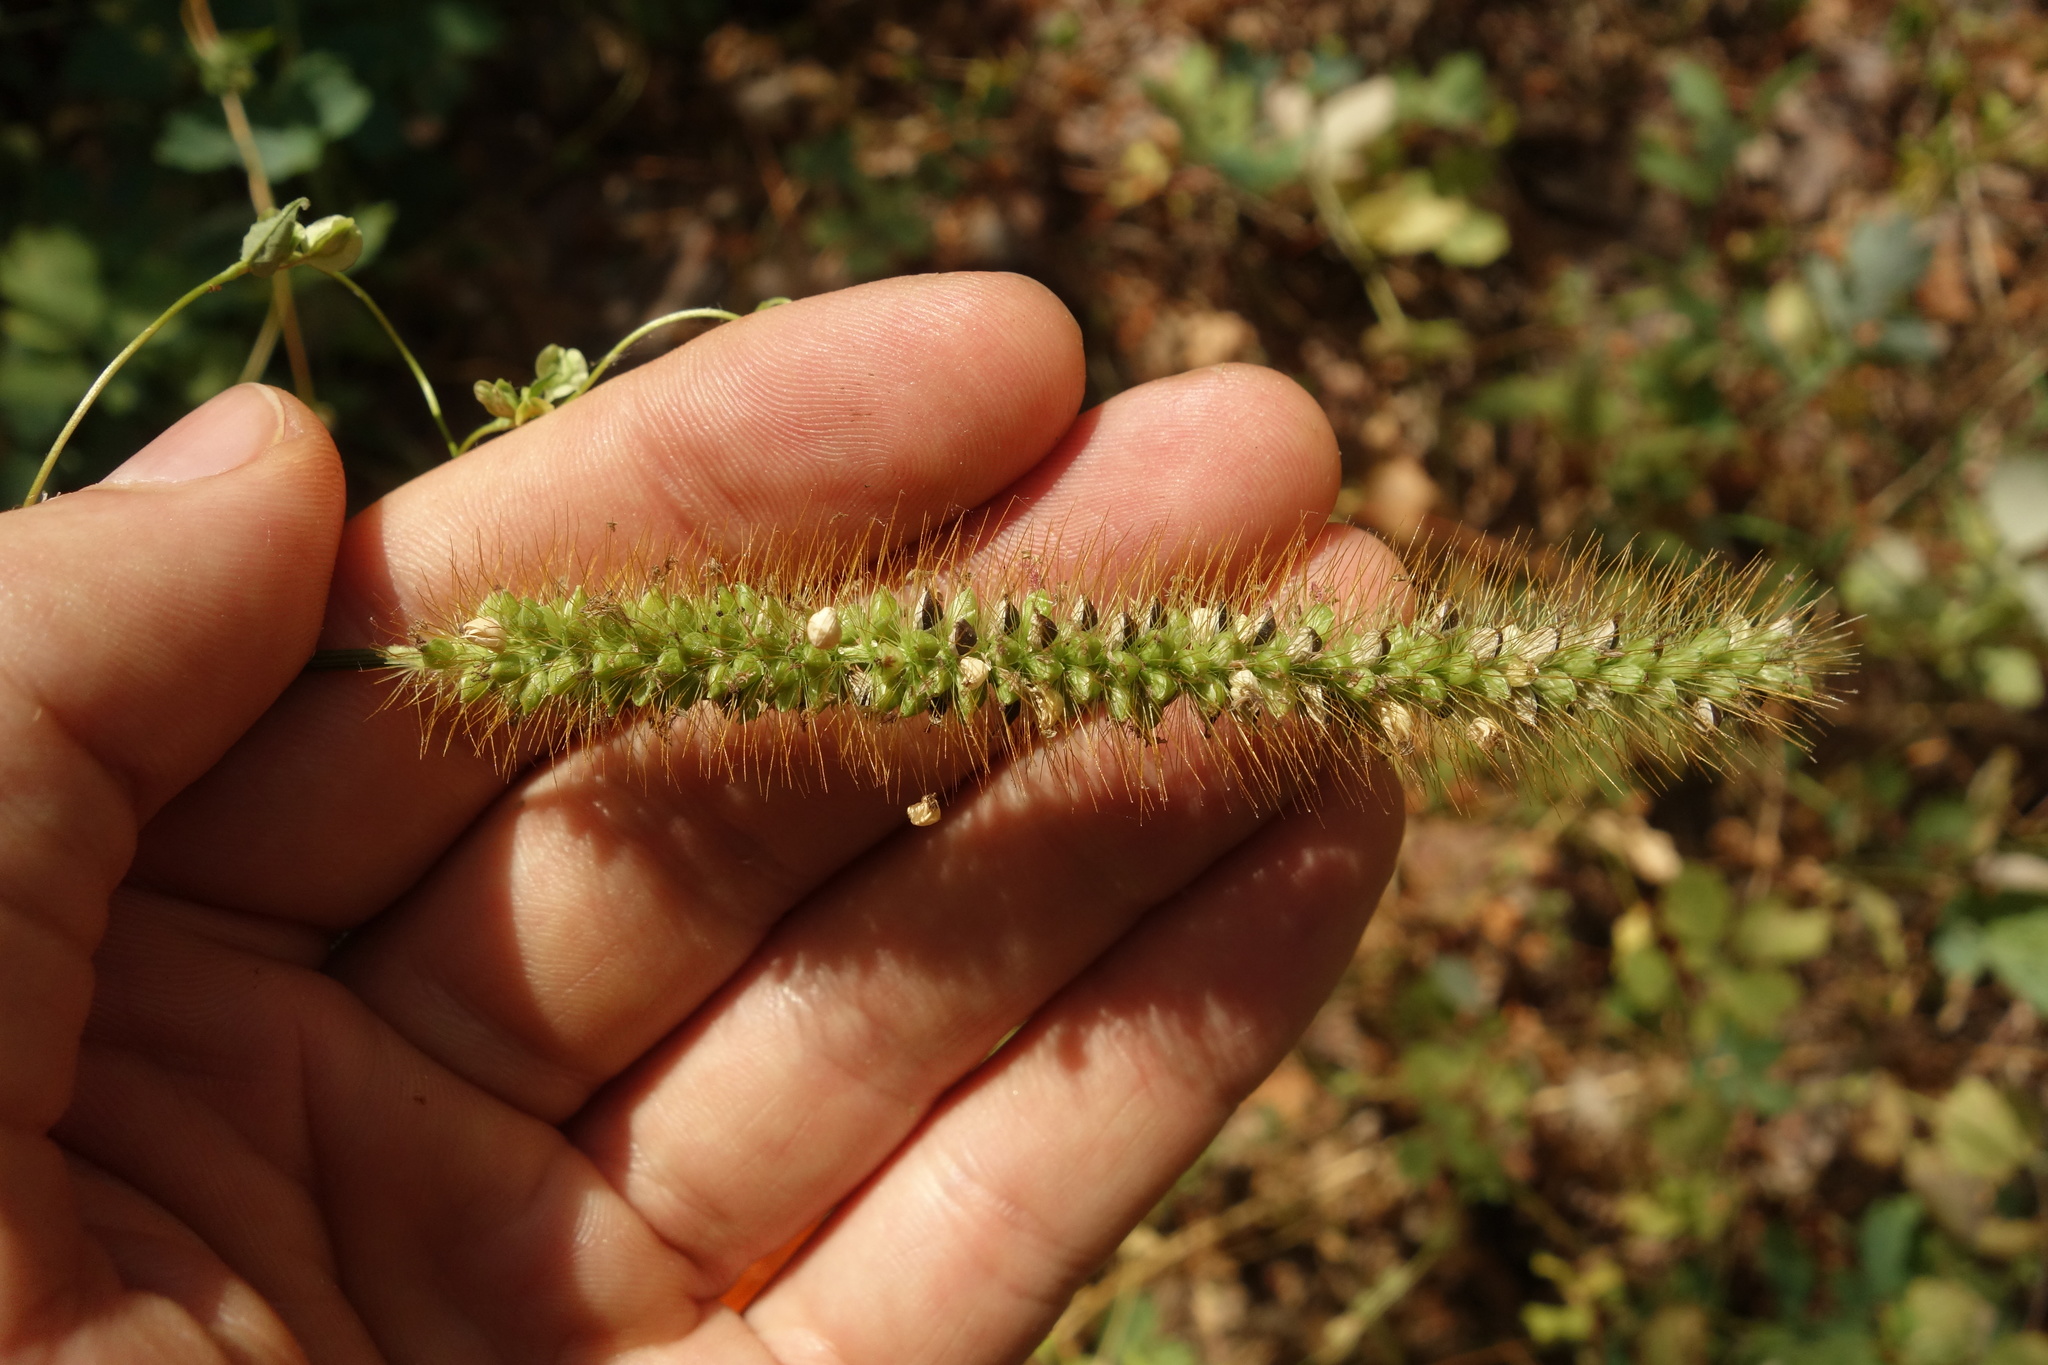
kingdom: Plantae
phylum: Tracheophyta
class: Liliopsida
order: Poales
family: Poaceae
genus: Setaria
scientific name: Setaria pumila
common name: Yellow bristle-grass
